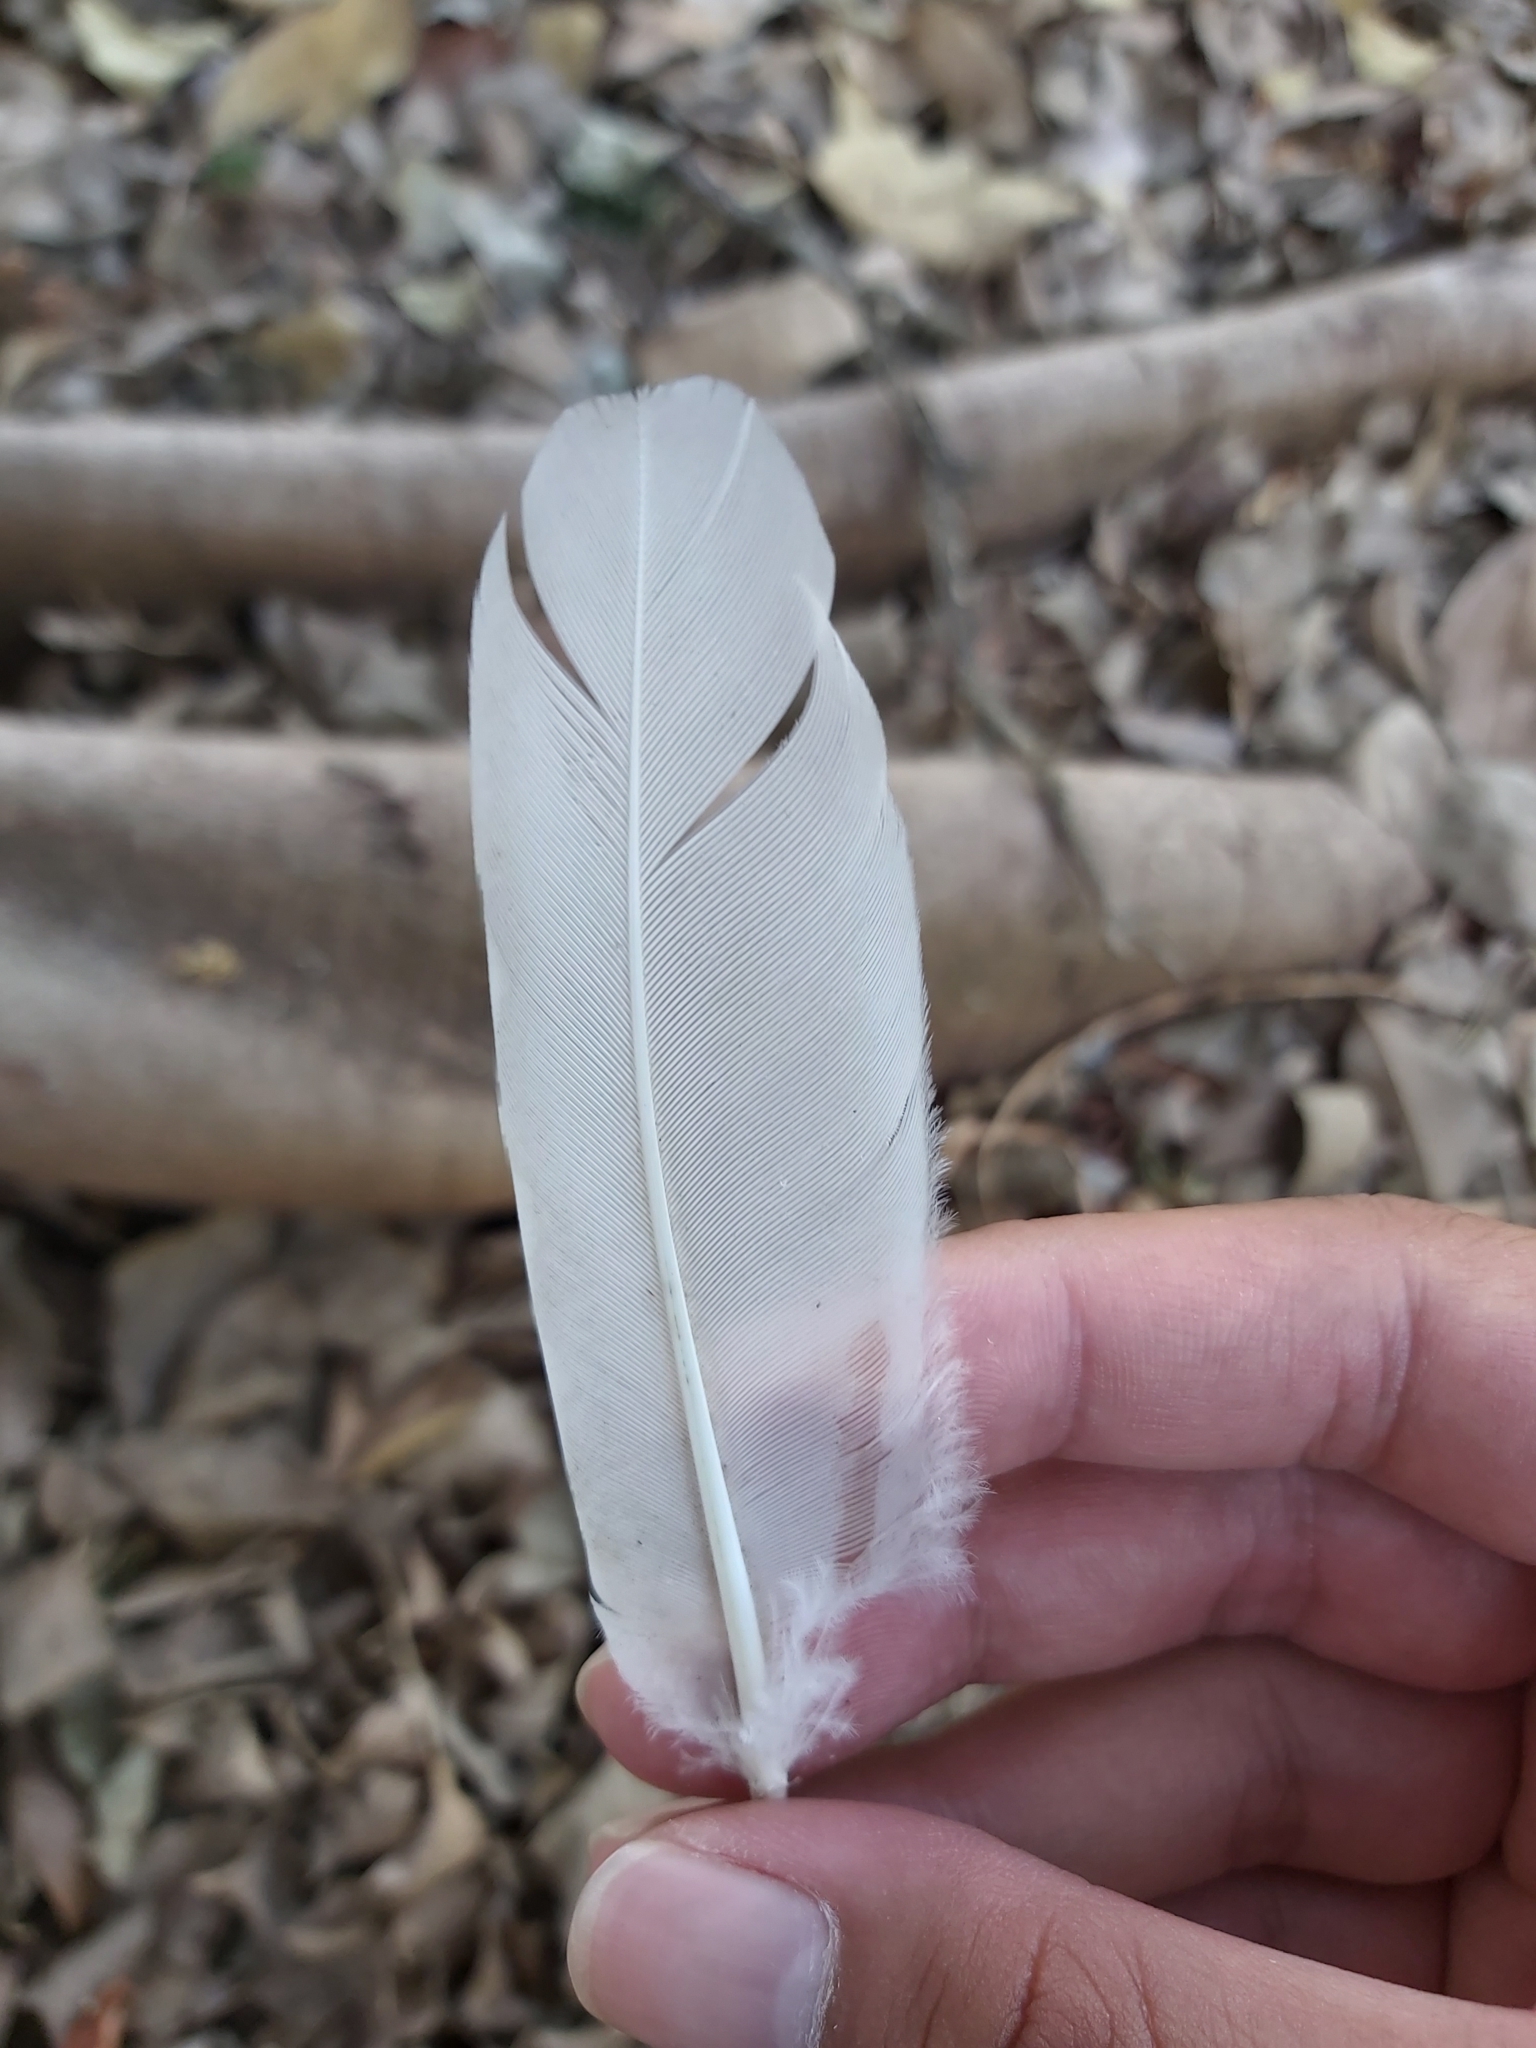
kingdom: Animalia
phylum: Chordata
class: Aves
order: Pelecaniformes
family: Threskiornithidae
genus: Threskiornis
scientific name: Threskiornis molucca
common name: Australian white ibis
